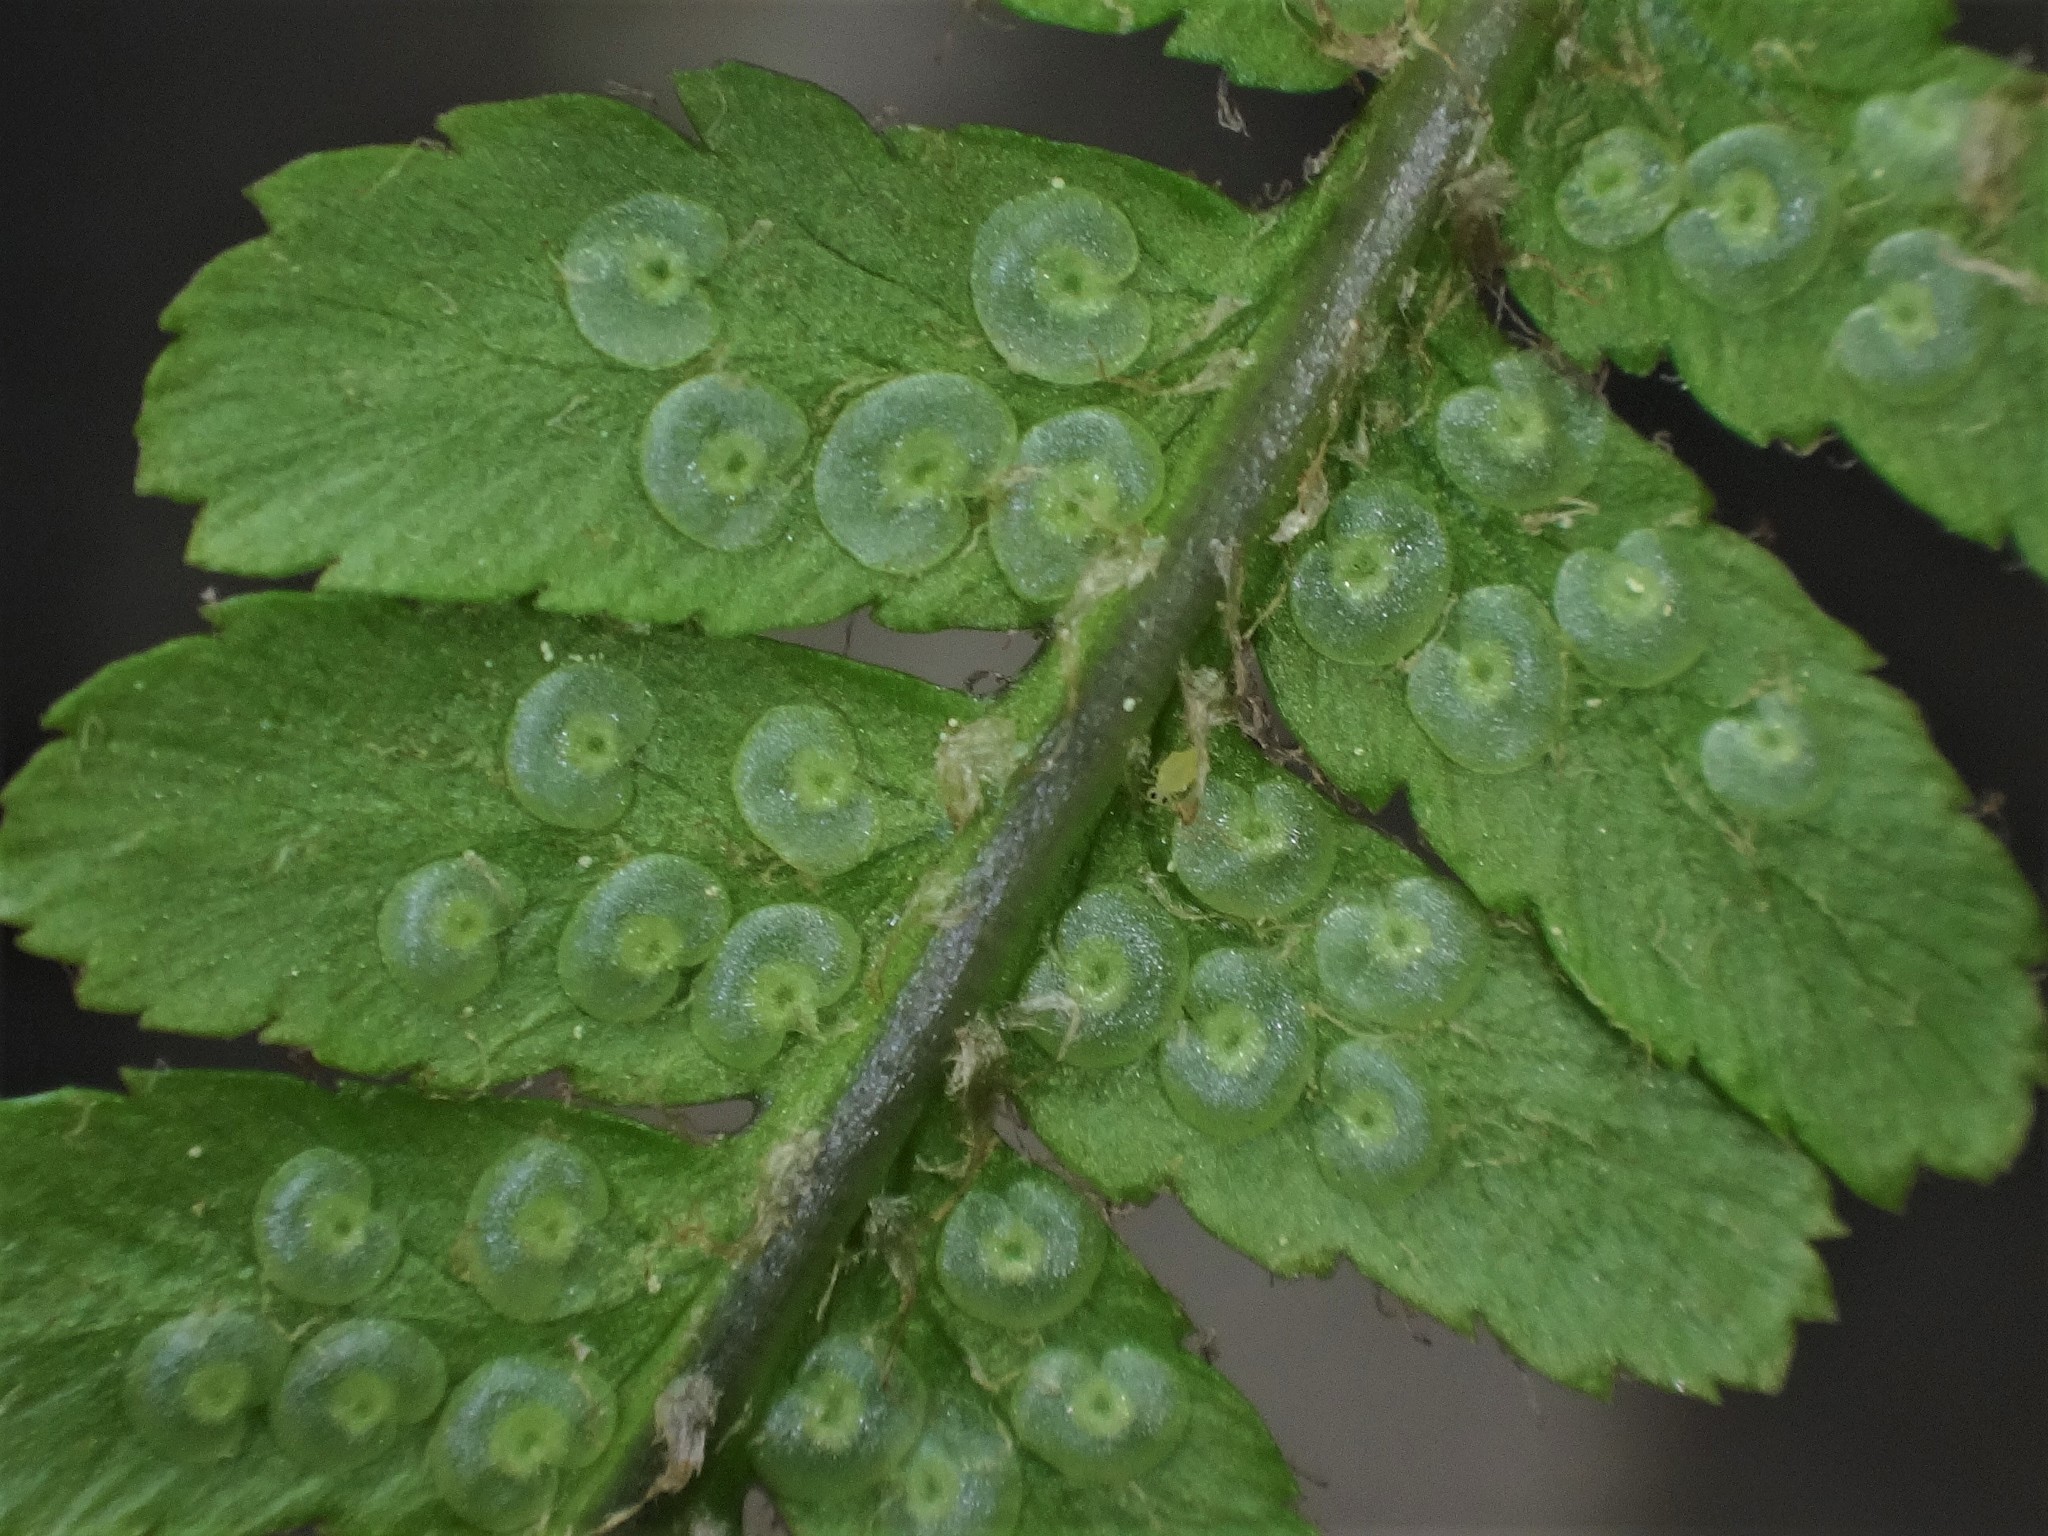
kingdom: Plantae
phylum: Tracheophyta
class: Polypodiopsida
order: Polypodiales
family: Dryopteridaceae
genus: Dryopteris
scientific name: Dryopteris filix-mas
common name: Male fern
